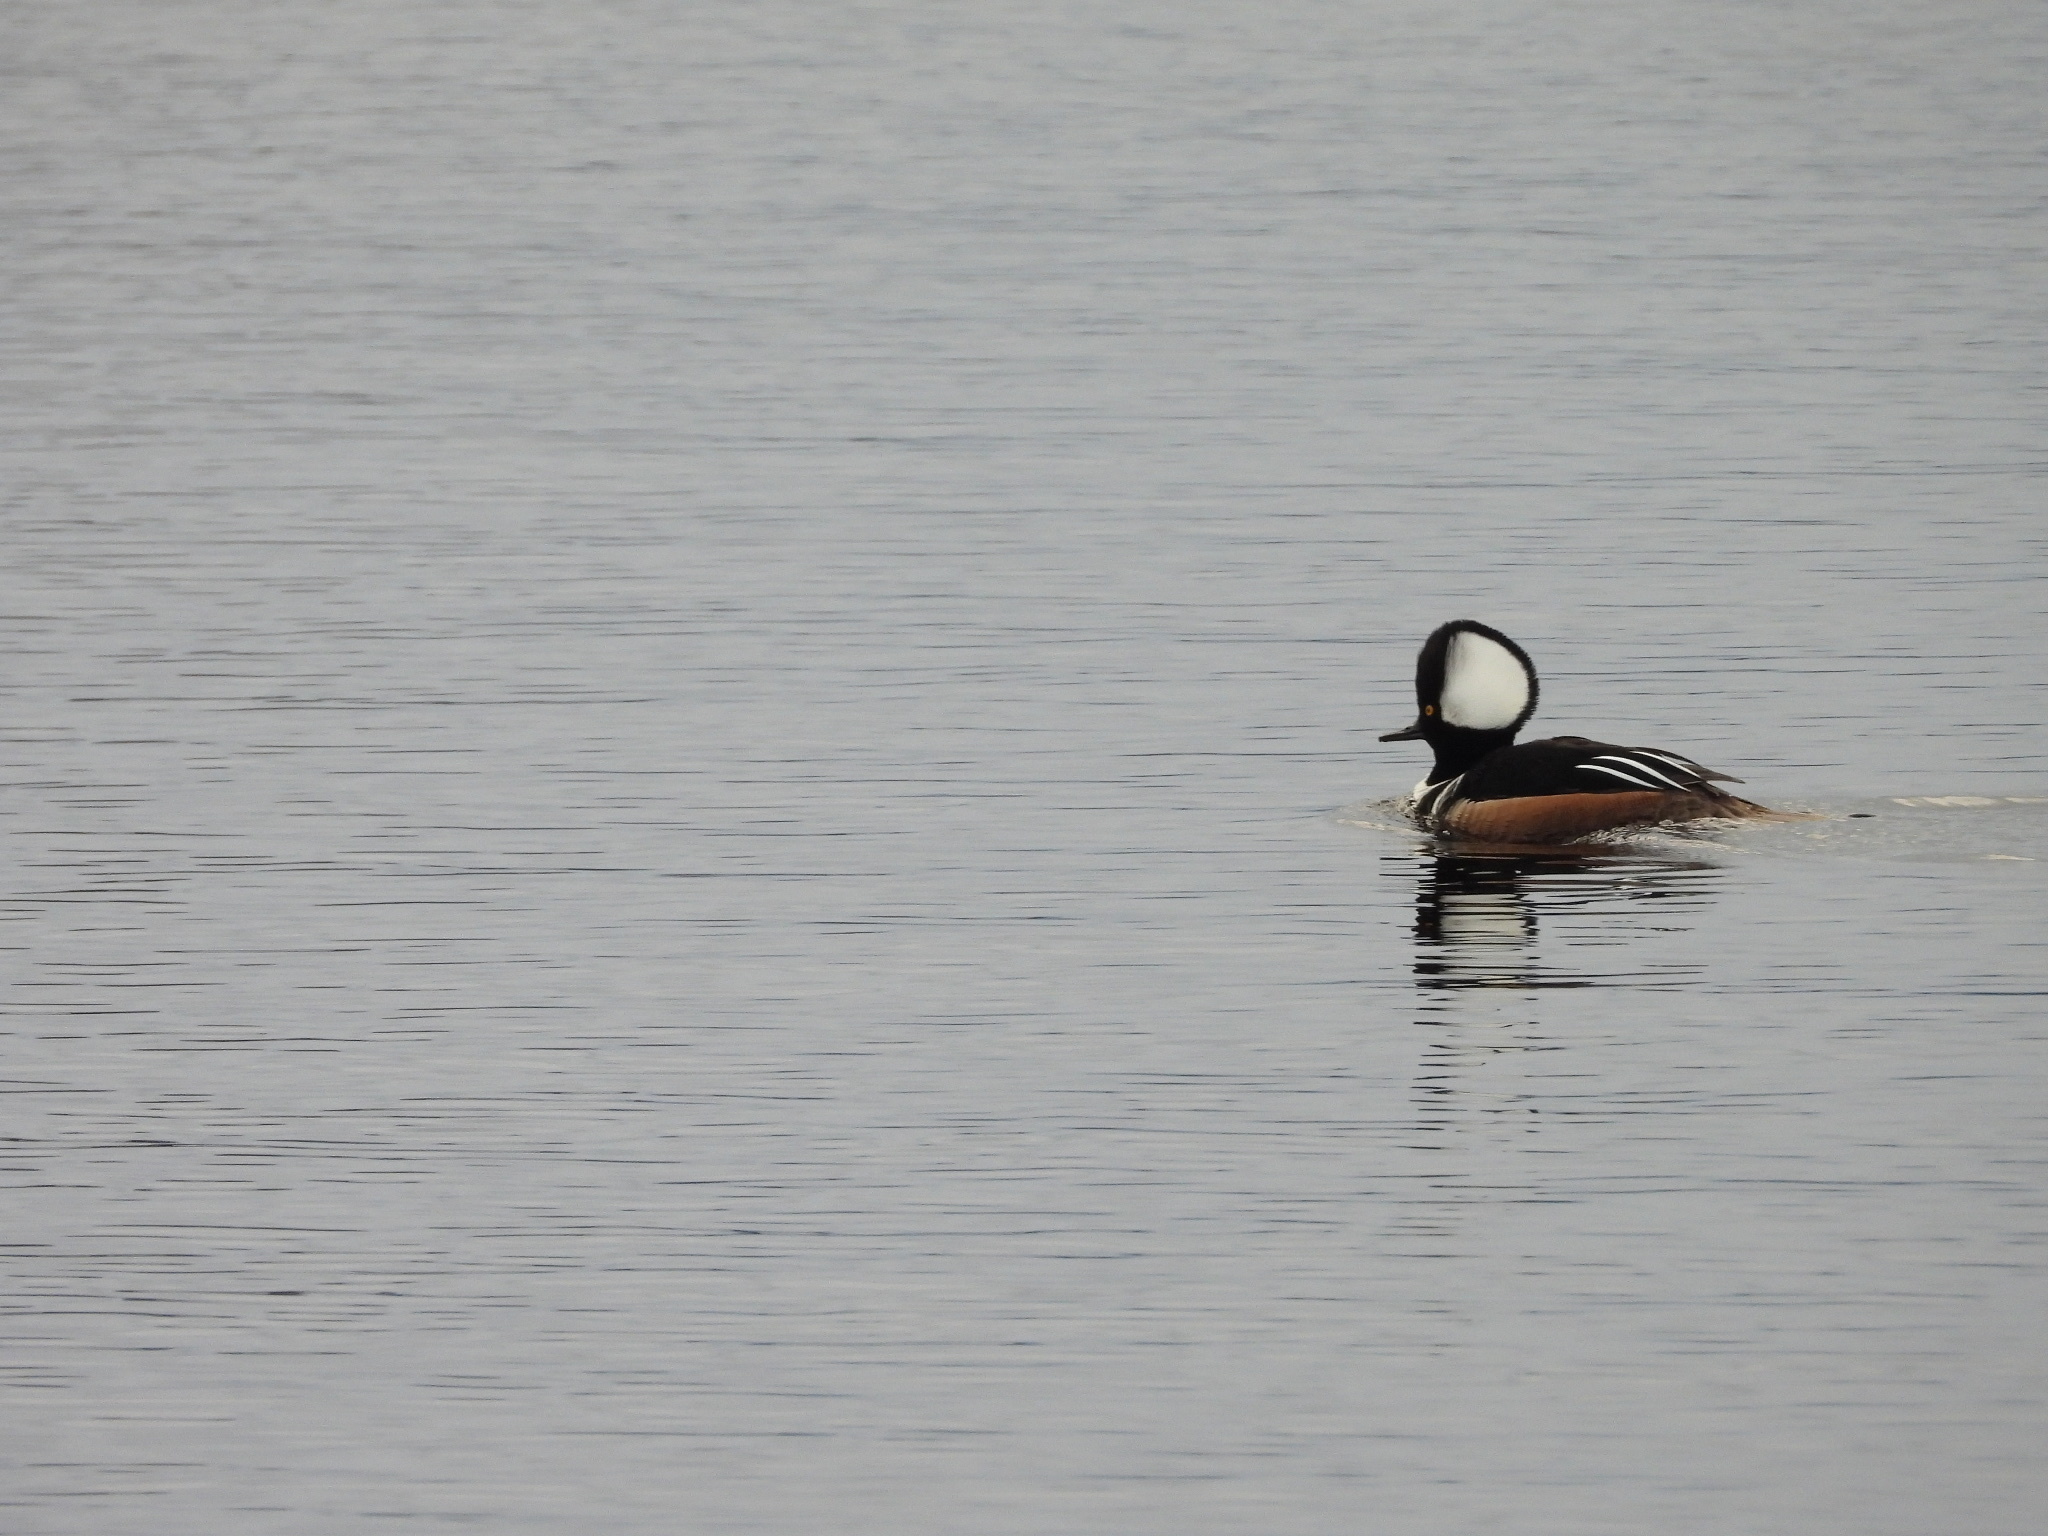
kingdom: Animalia
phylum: Chordata
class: Aves
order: Anseriformes
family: Anatidae
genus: Lophodytes
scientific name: Lophodytes cucullatus
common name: Hooded merganser
